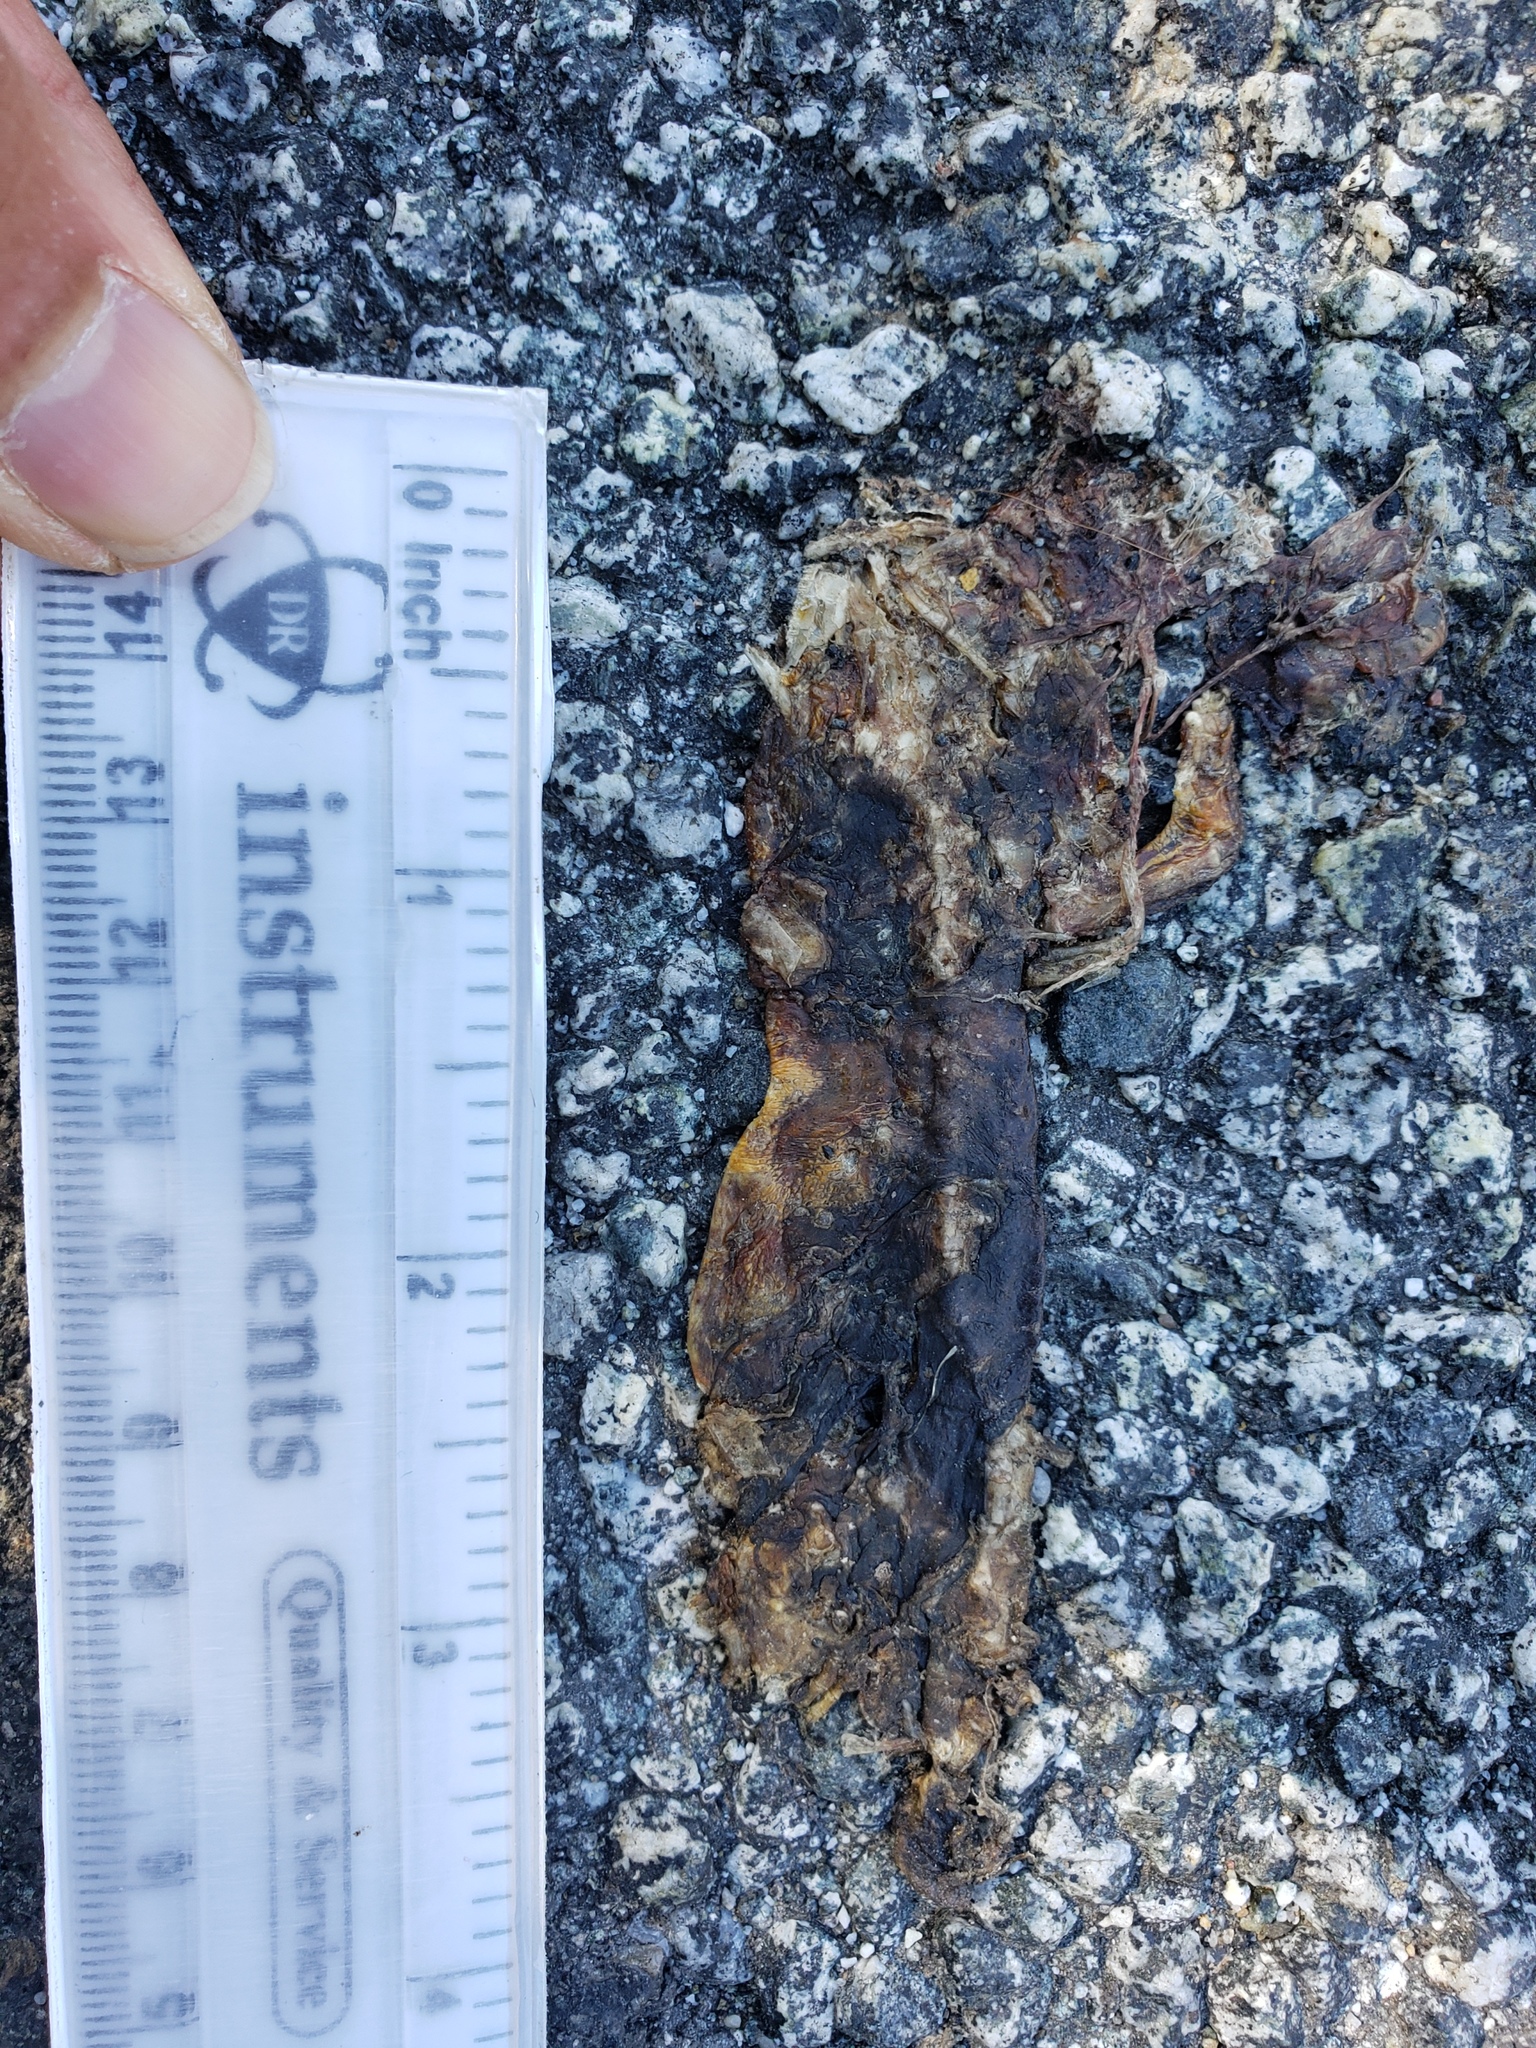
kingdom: Animalia
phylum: Chordata
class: Amphibia
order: Caudata
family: Salamandridae
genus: Taricha
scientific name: Taricha
